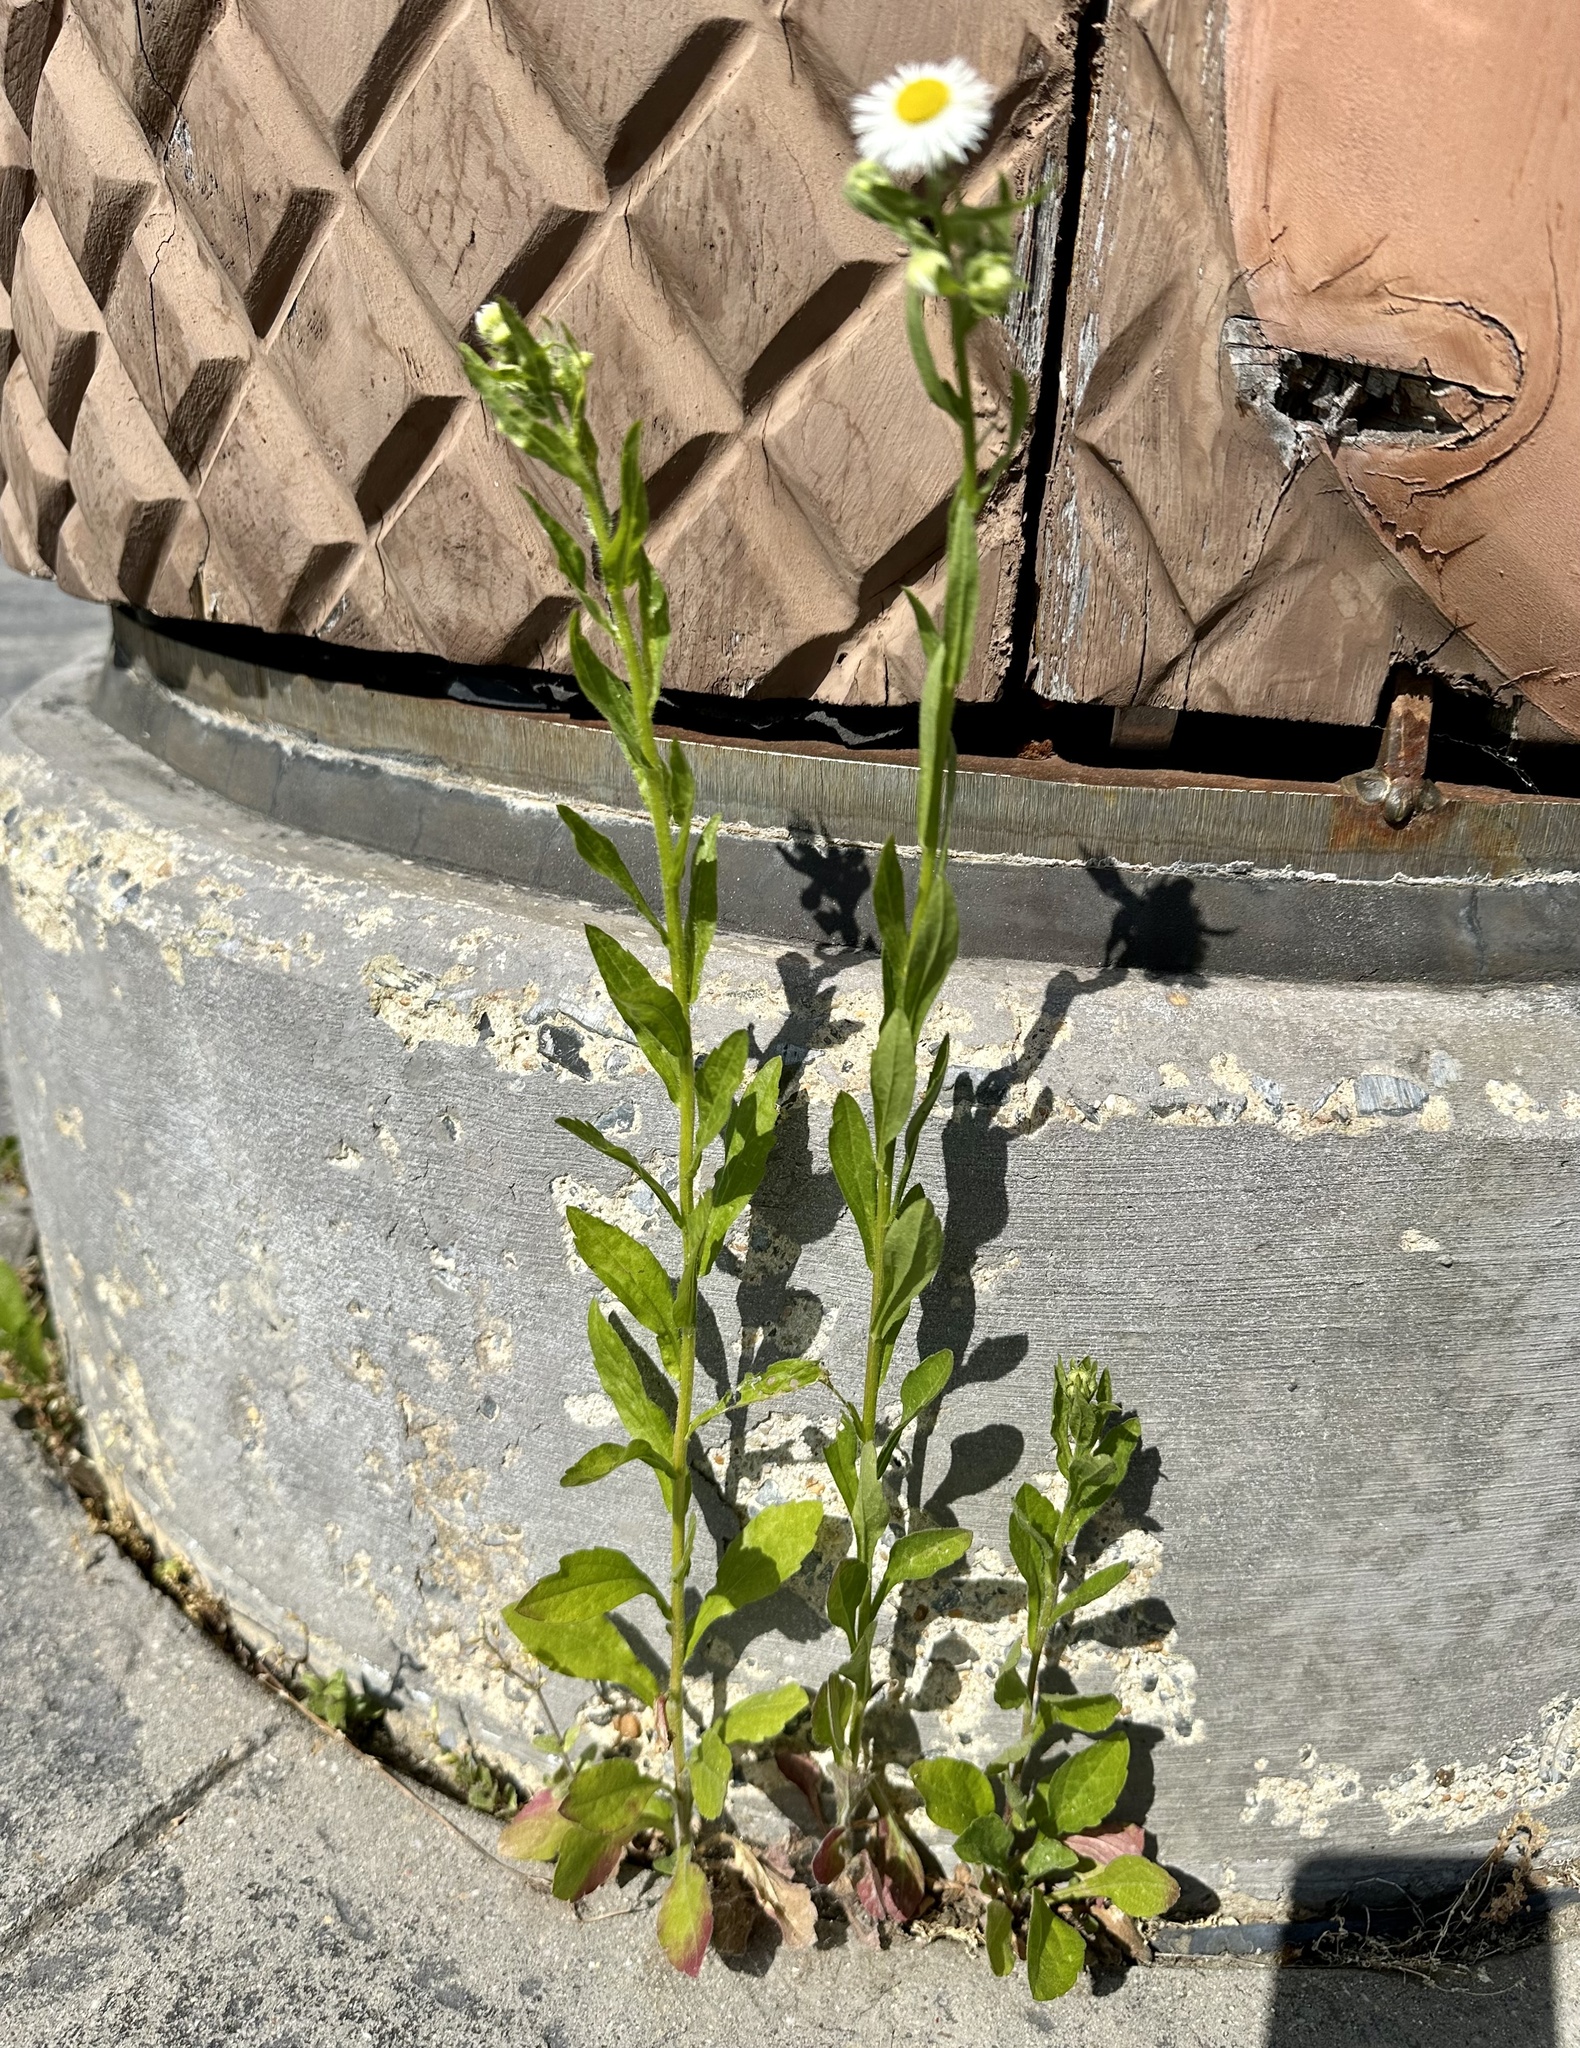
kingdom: Plantae
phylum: Tracheophyta
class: Magnoliopsida
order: Asterales
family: Asteraceae
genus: Erigeron
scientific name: Erigeron annuus
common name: Tall fleabane
